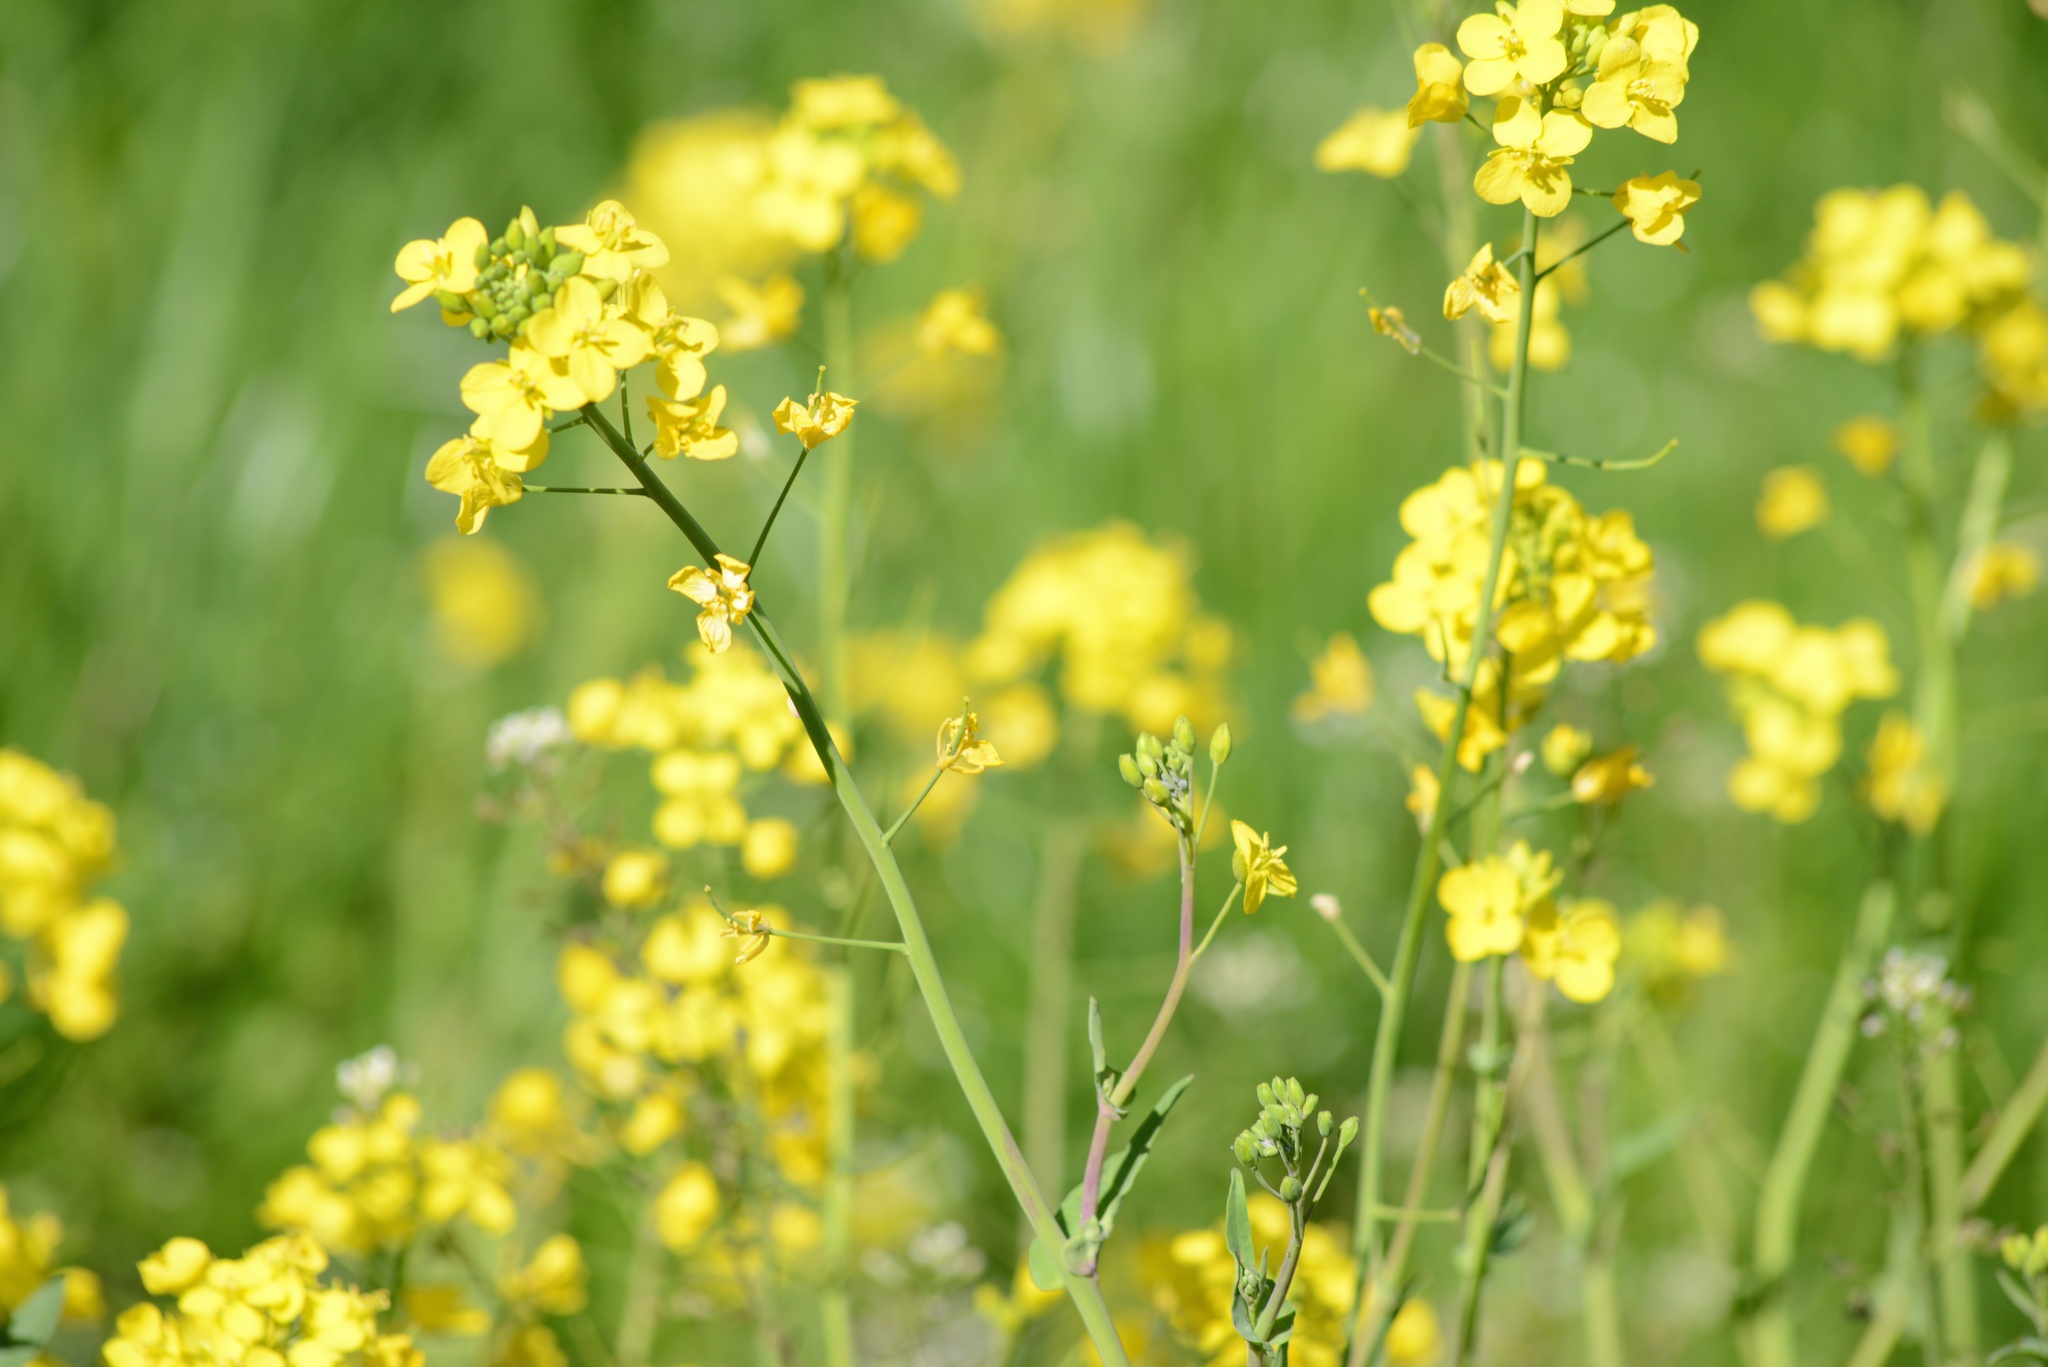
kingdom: Plantae
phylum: Tracheophyta
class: Magnoliopsida
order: Brassicales
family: Brassicaceae
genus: Brassica
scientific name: Brassica rapa
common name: Field mustard
